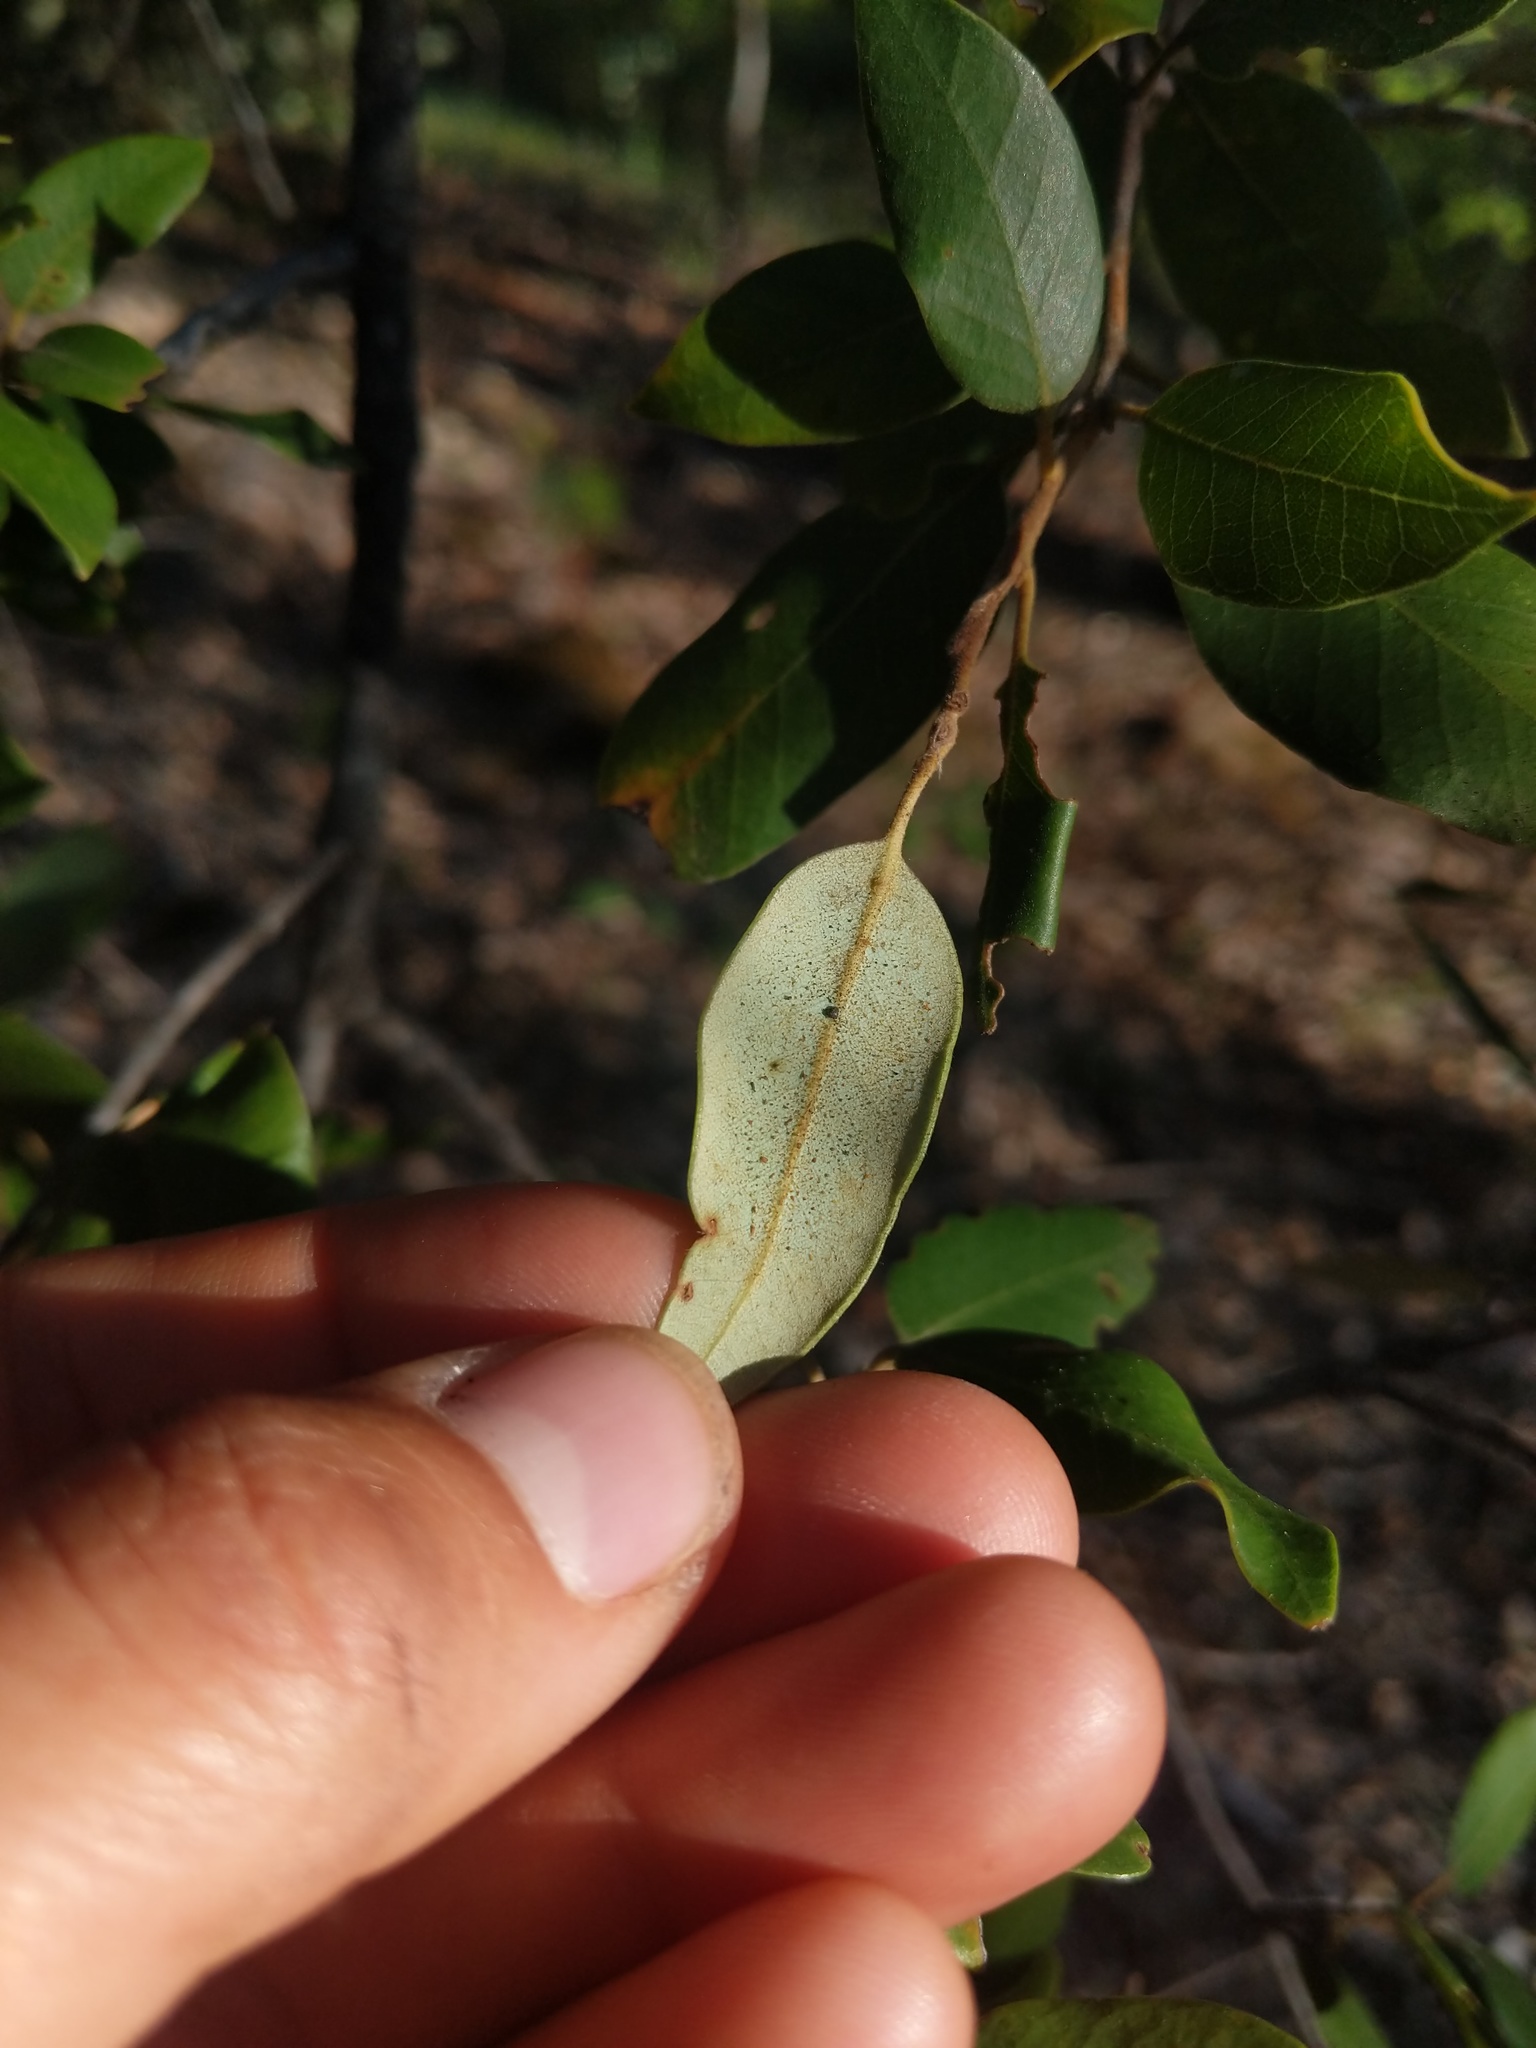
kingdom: Animalia
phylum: Arthropoda
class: Insecta
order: Hymenoptera
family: Cynipidae
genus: Andricus
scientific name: Andricus
